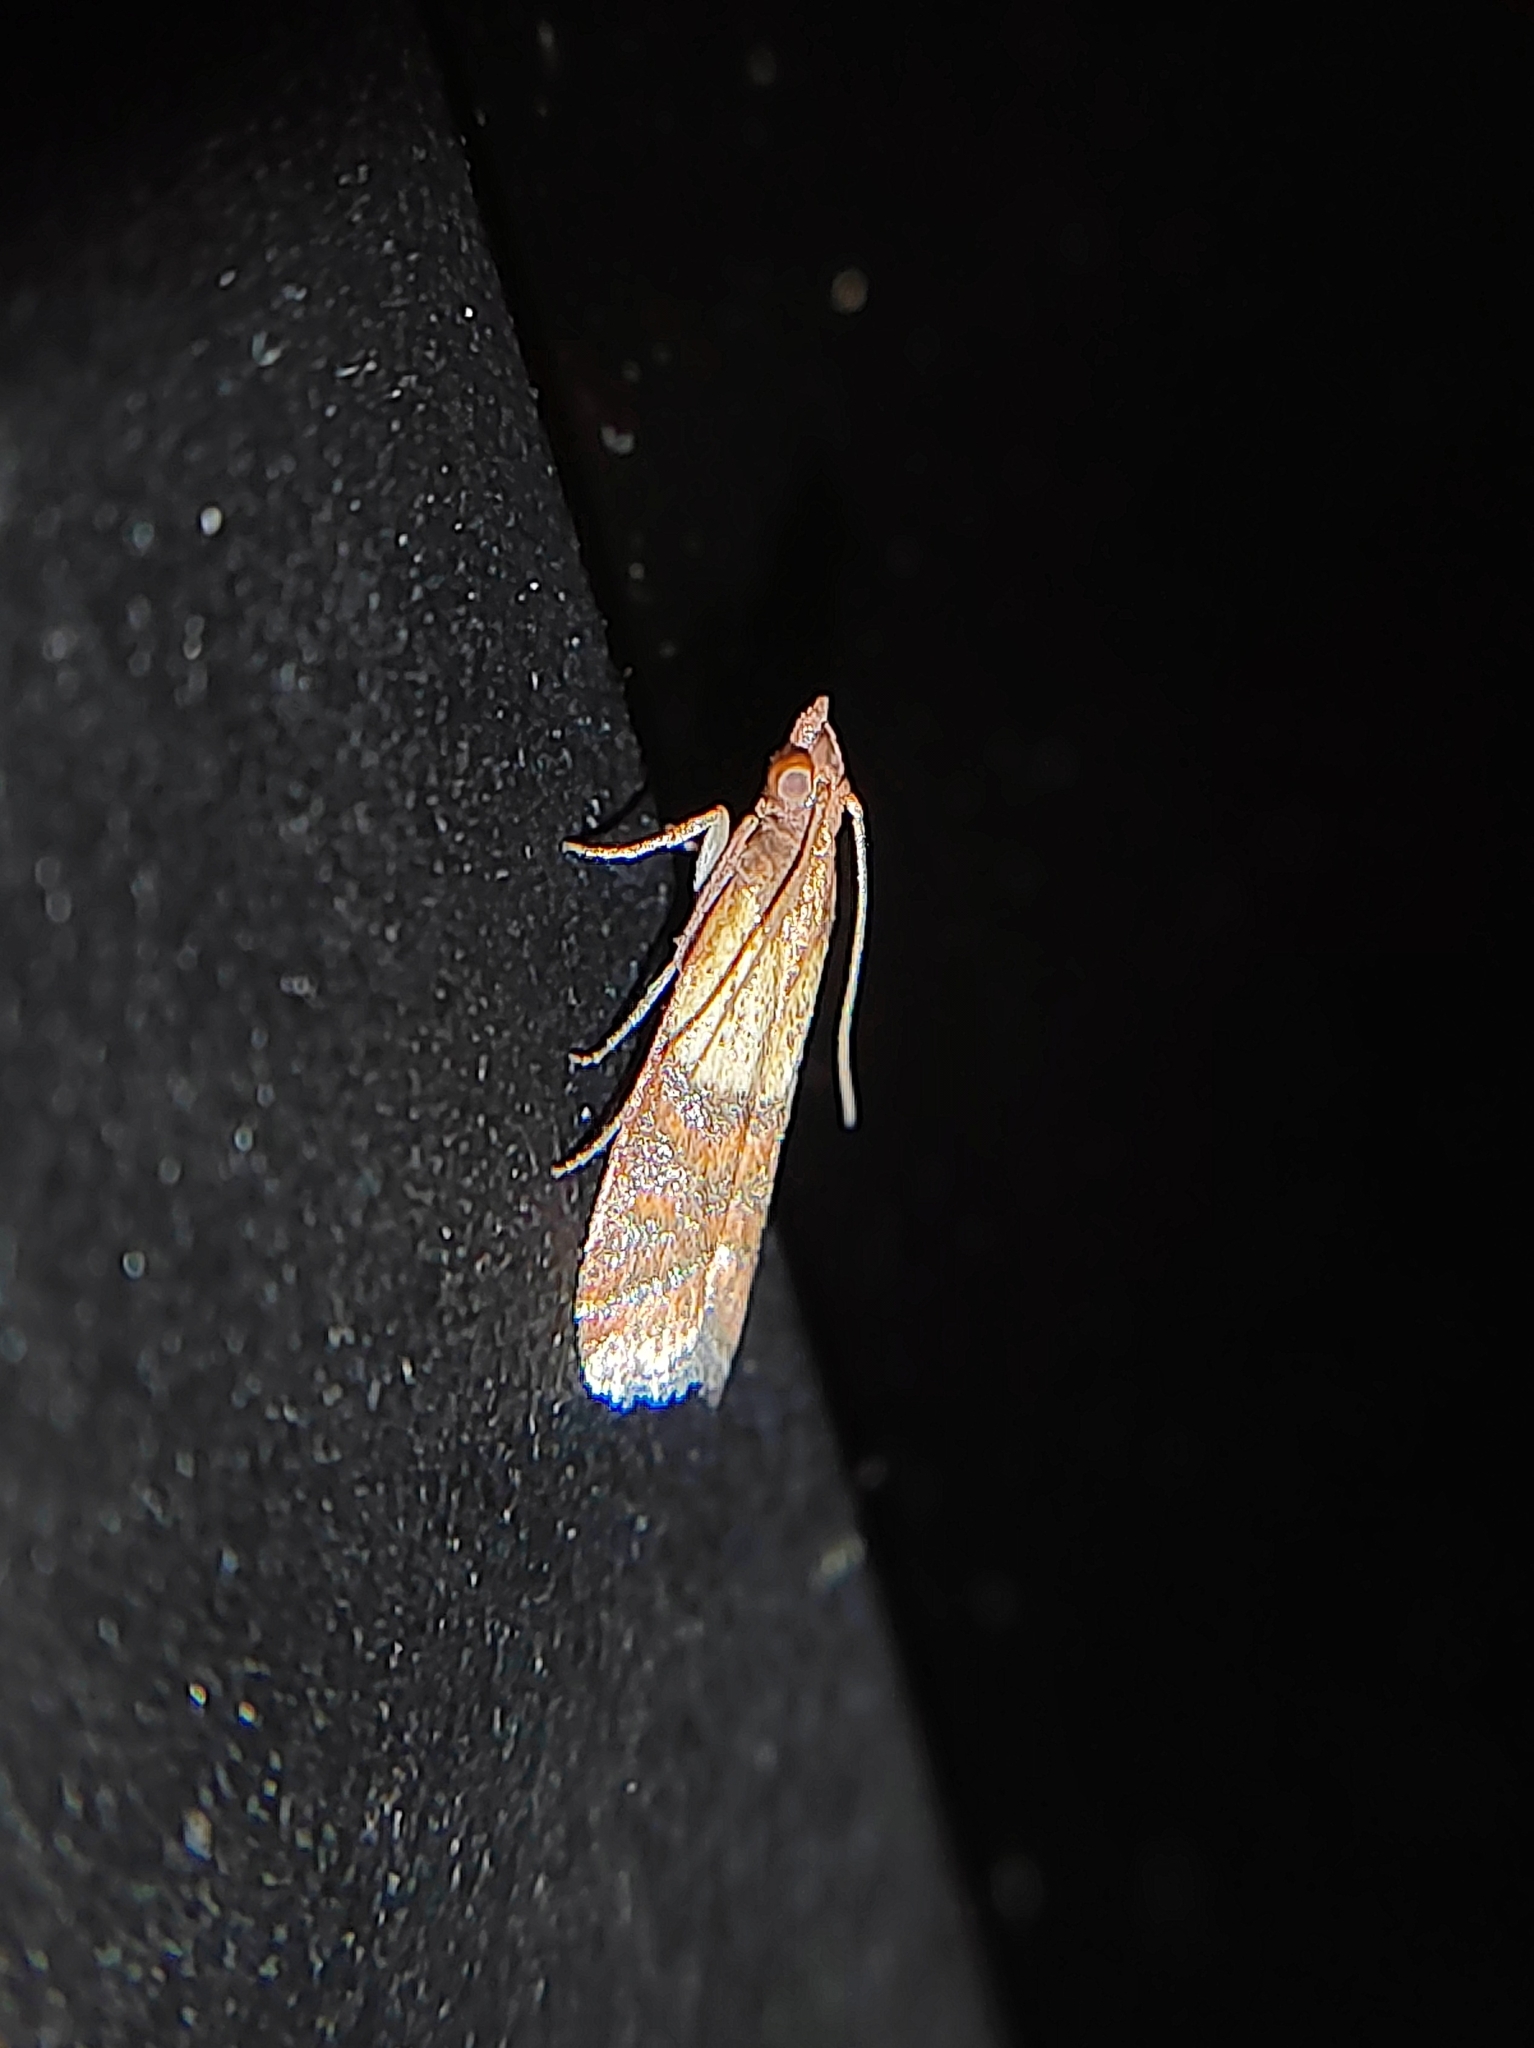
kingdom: Animalia
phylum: Arthropoda
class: Insecta
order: Lepidoptera
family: Pyralidae
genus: Plodia
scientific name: Plodia interpunctella
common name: Indian meal moth
